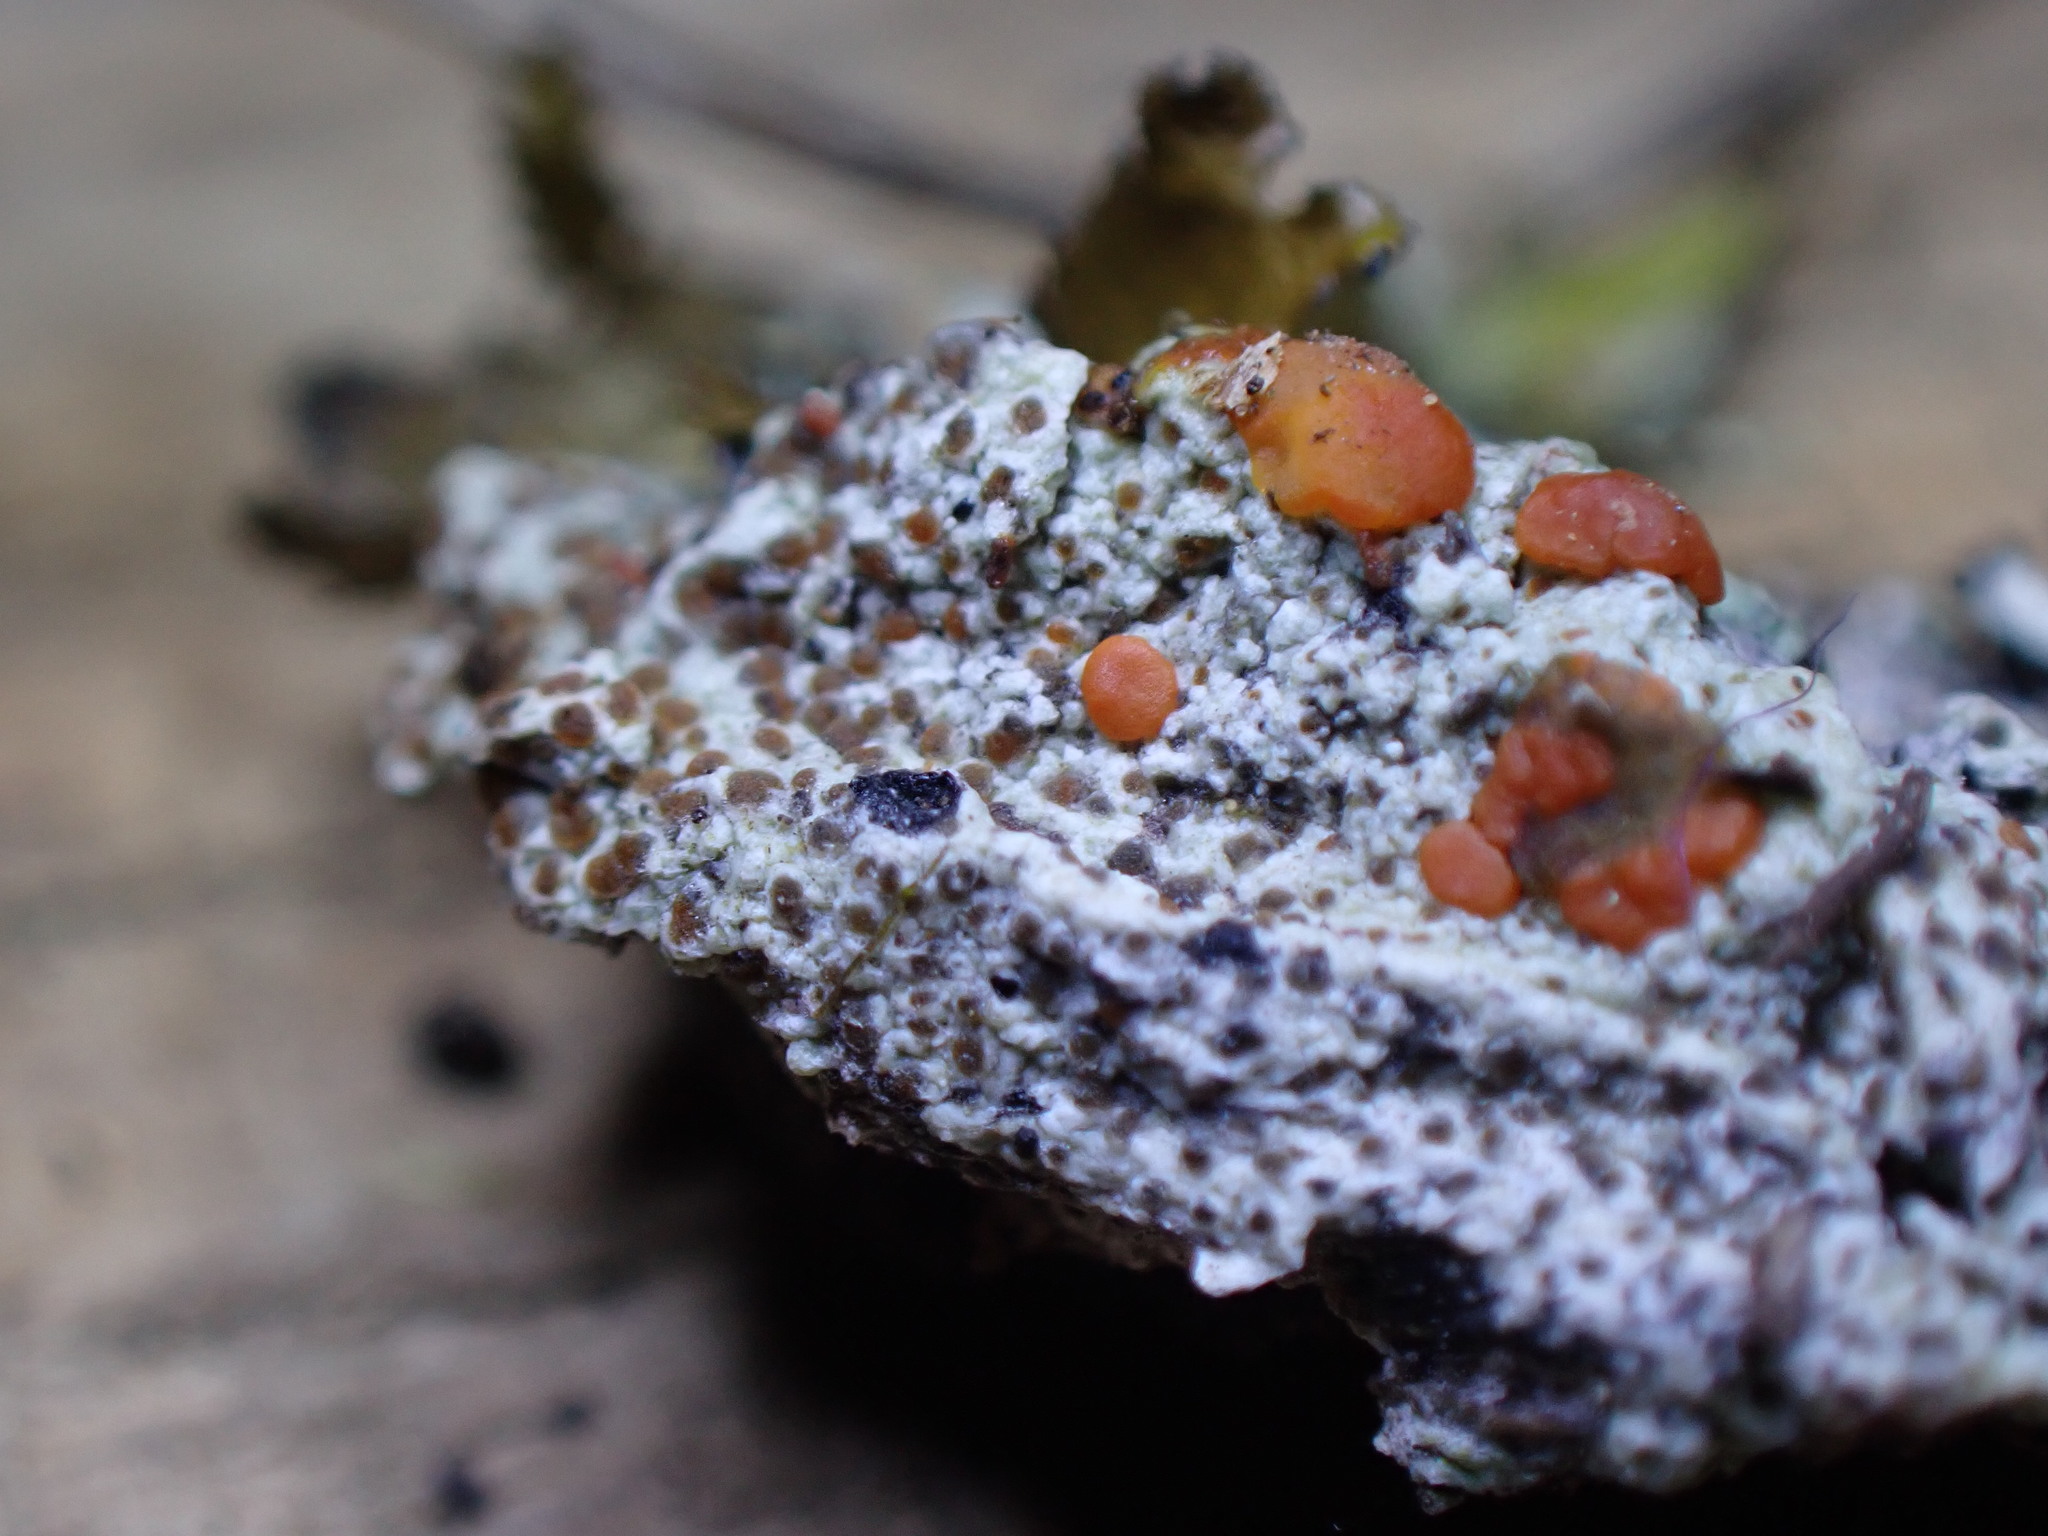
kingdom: Fungi
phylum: Ascomycota
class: Lecanoromycetes
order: Lecanorales
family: Ramboldiaceae
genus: Ramboldia
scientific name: Ramboldia gowardiana
